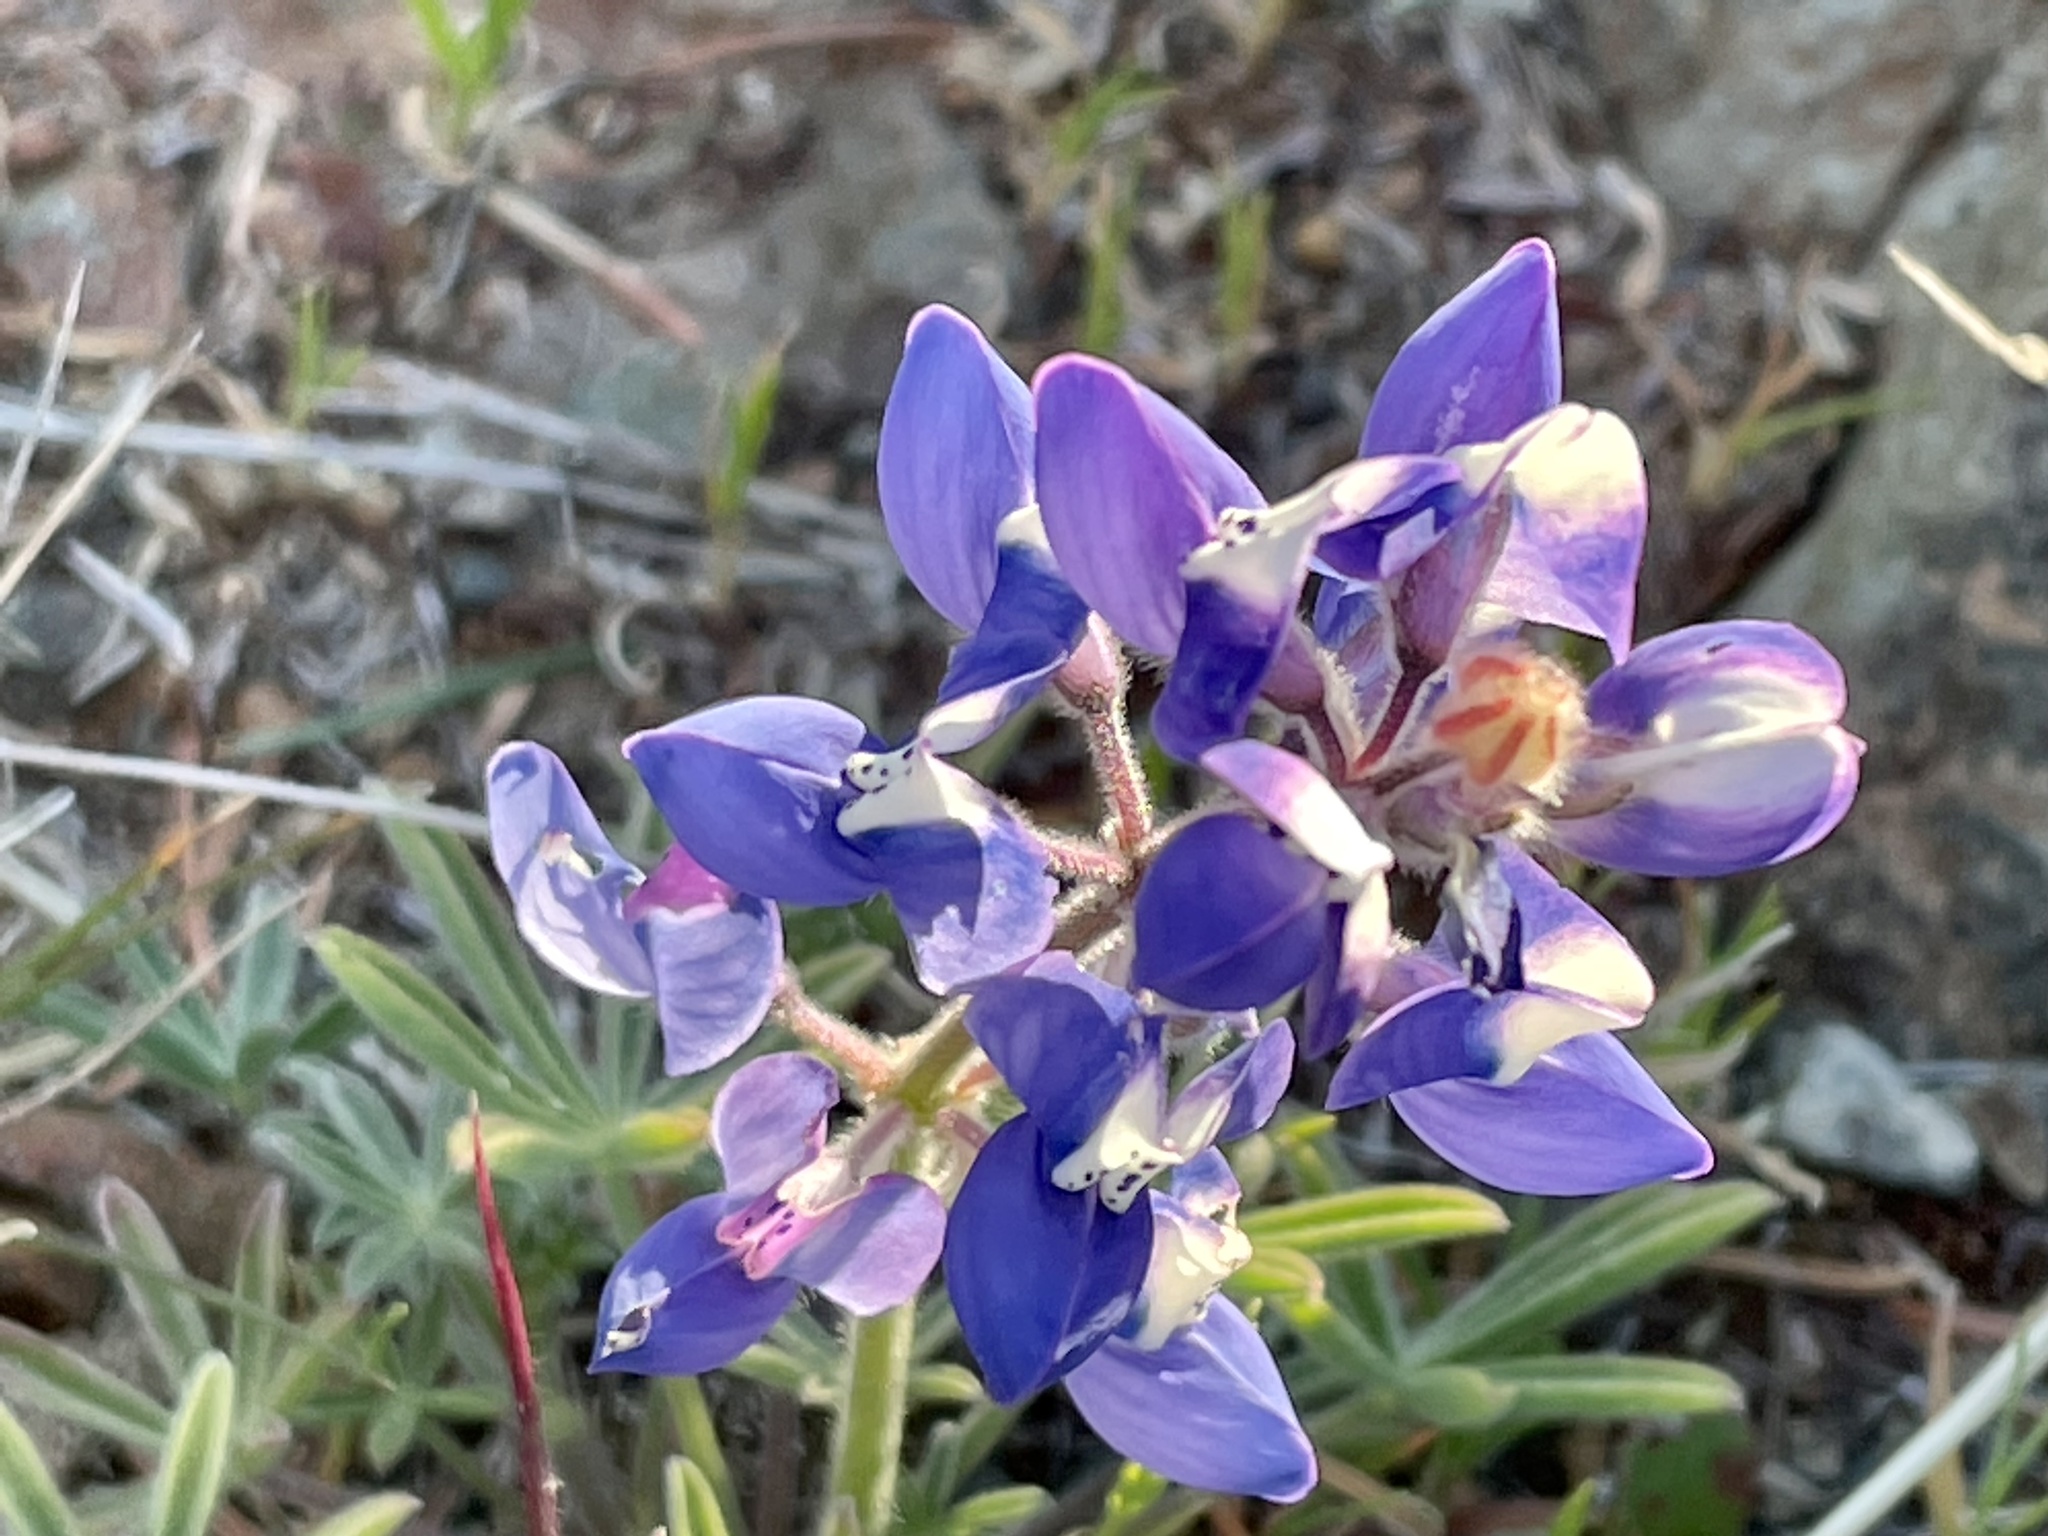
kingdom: Plantae
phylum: Tracheophyta
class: Magnoliopsida
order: Fabales
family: Fabaceae
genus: Lupinus
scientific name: Lupinus nanus
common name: Orean blue lupin
